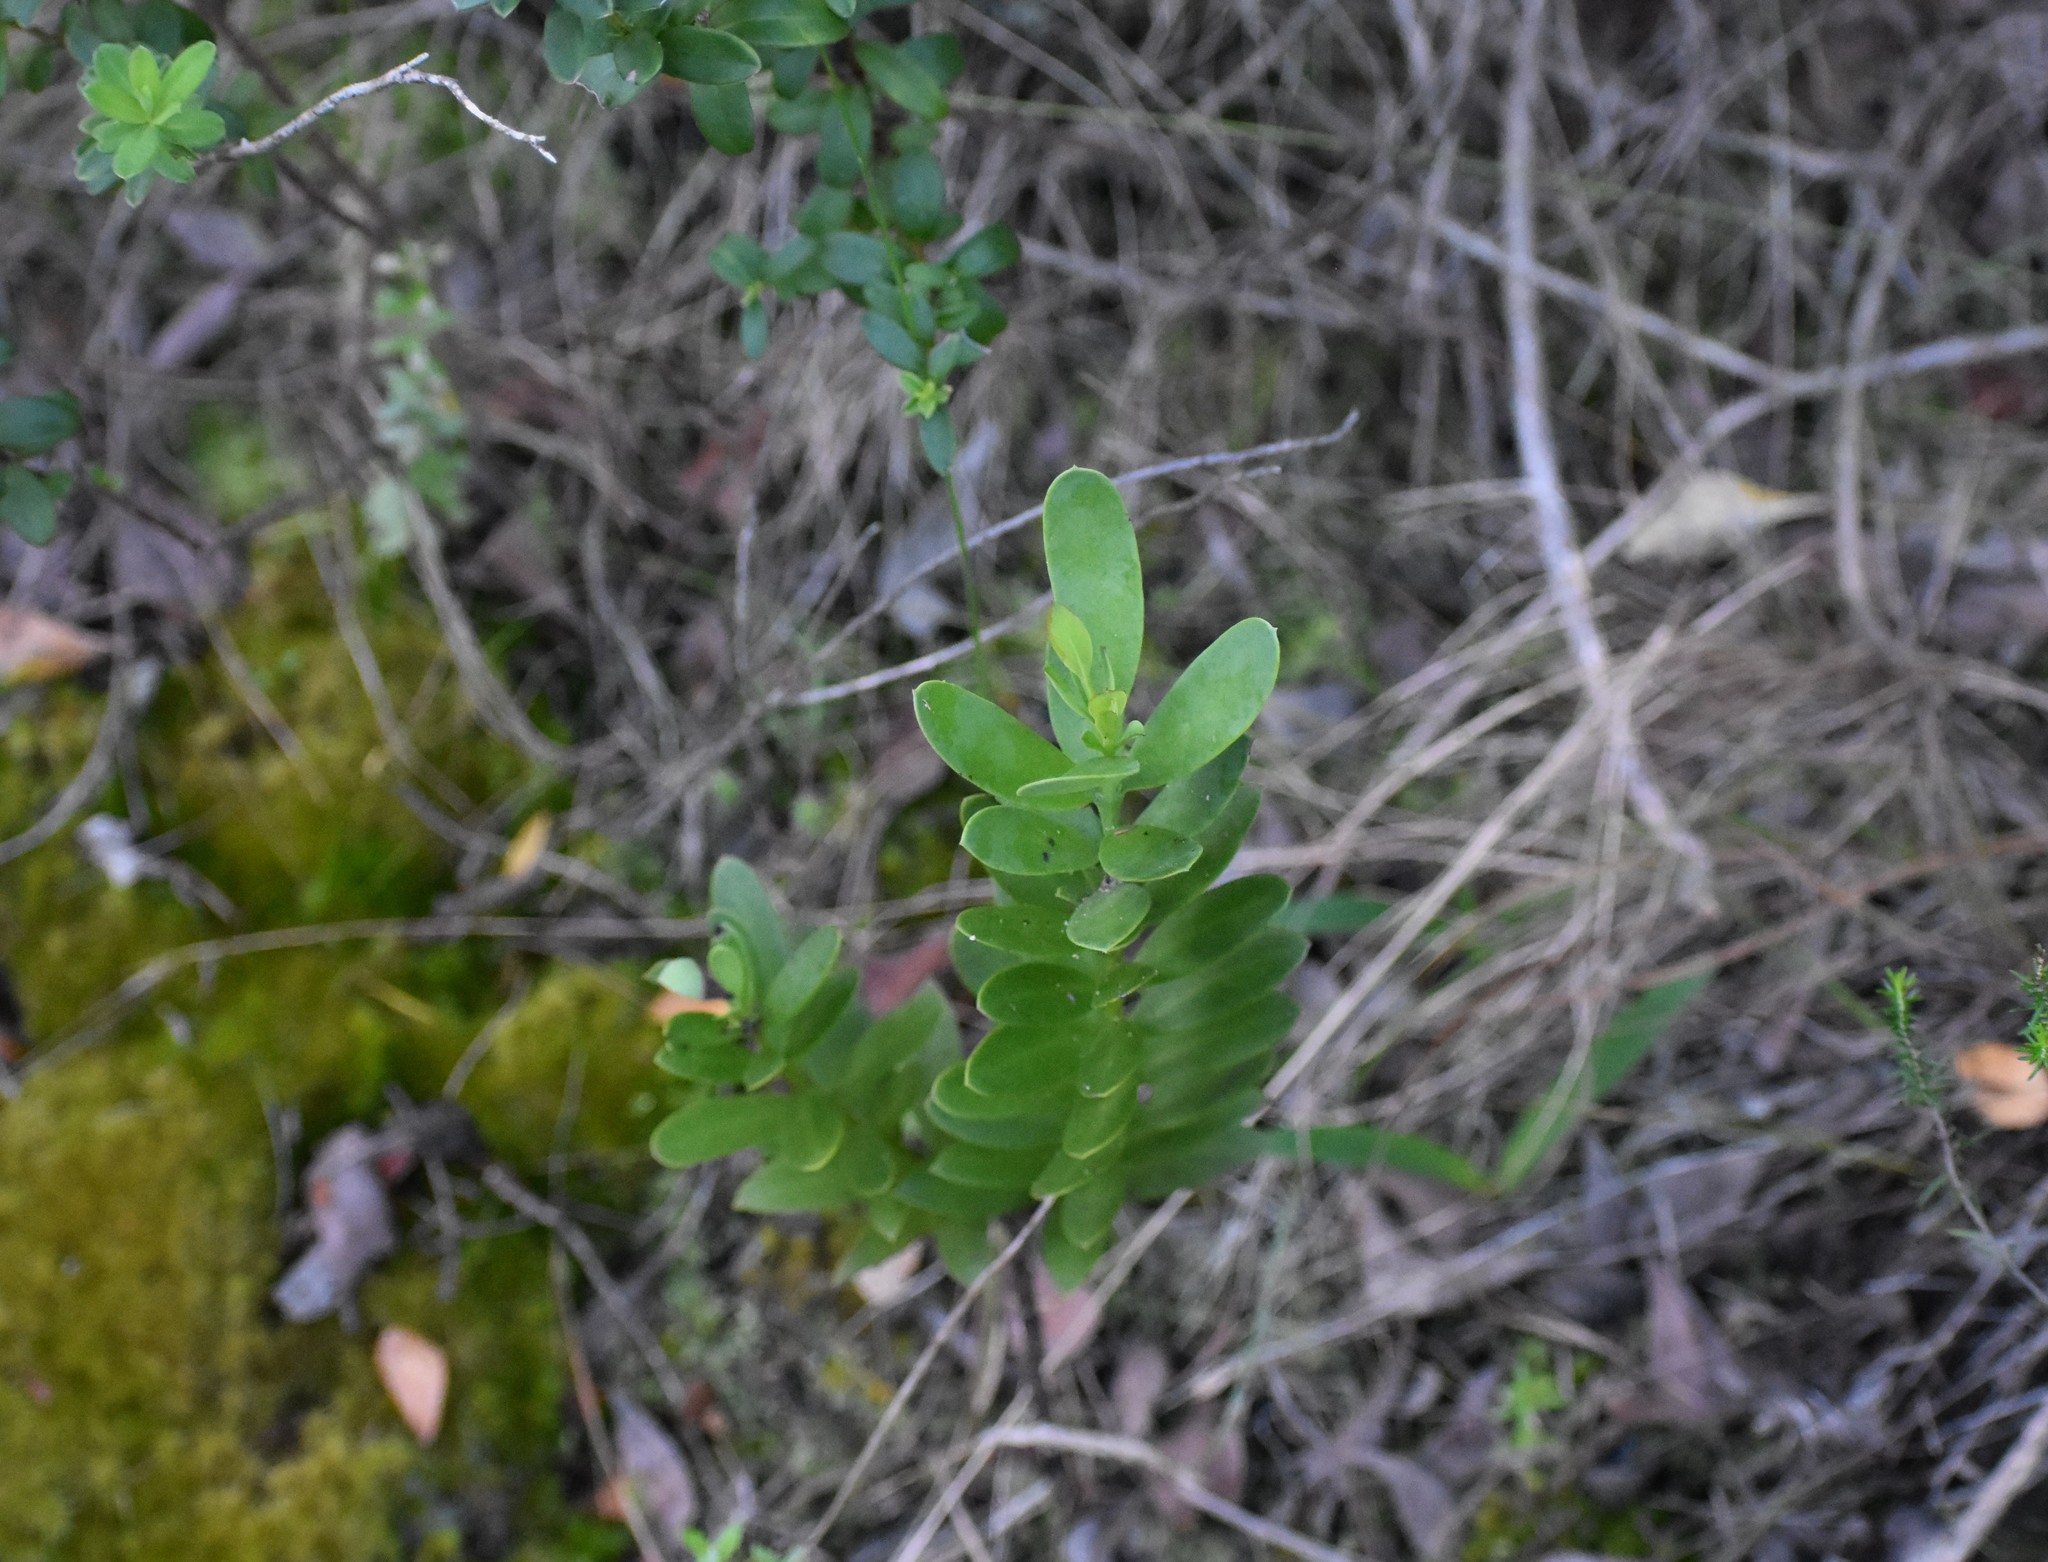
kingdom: Plantae
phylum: Tracheophyta
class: Magnoliopsida
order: Santalales
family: Santalaceae
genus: Osyris
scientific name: Osyris compressa
